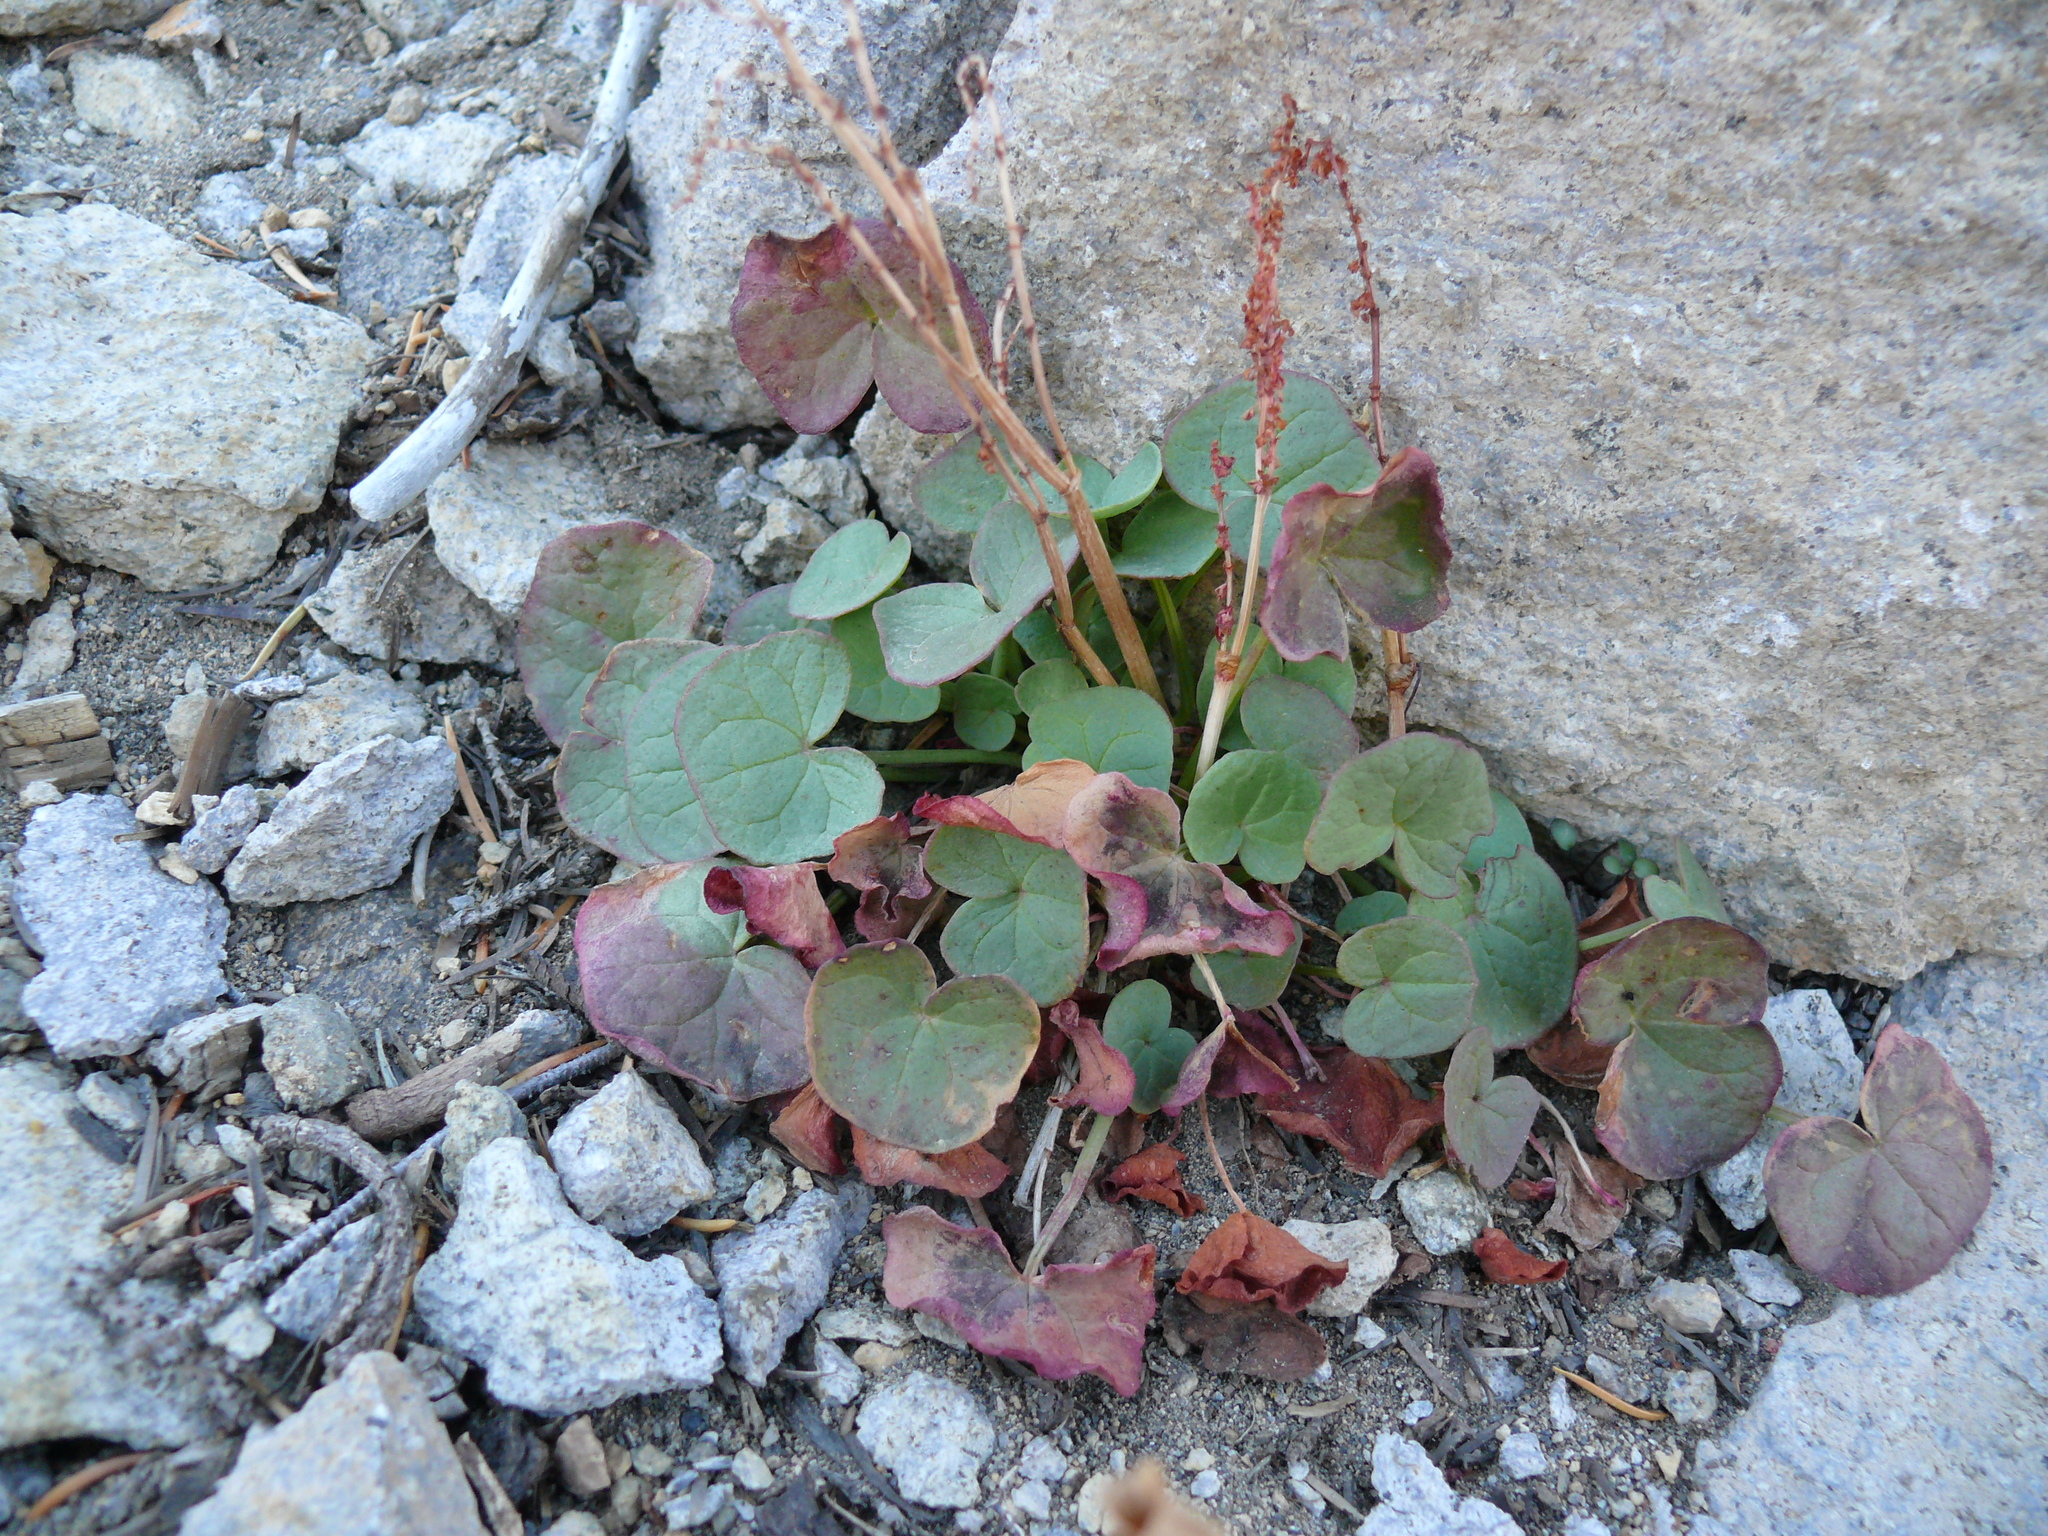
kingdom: Plantae
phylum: Tracheophyta
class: Magnoliopsida
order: Caryophyllales
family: Polygonaceae
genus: Oxyria
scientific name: Oxyria digyna
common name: Alpine mountain-sorrel
